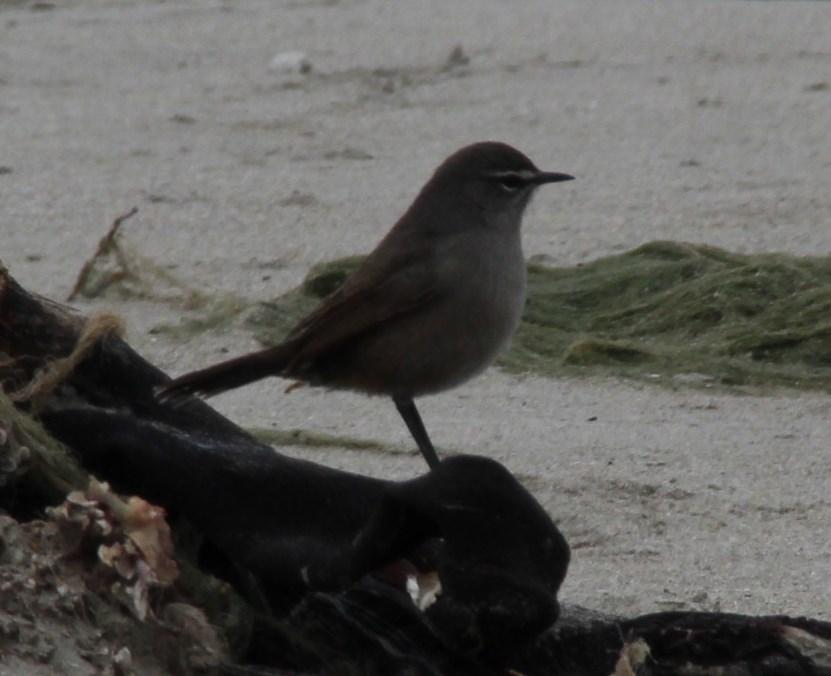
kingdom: Animalia
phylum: Chordata
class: Aves
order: Passeriformes
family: Muscicapidae
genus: Erythropygia
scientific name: Erythropygia coryphoeus
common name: Karoo scrub robin
